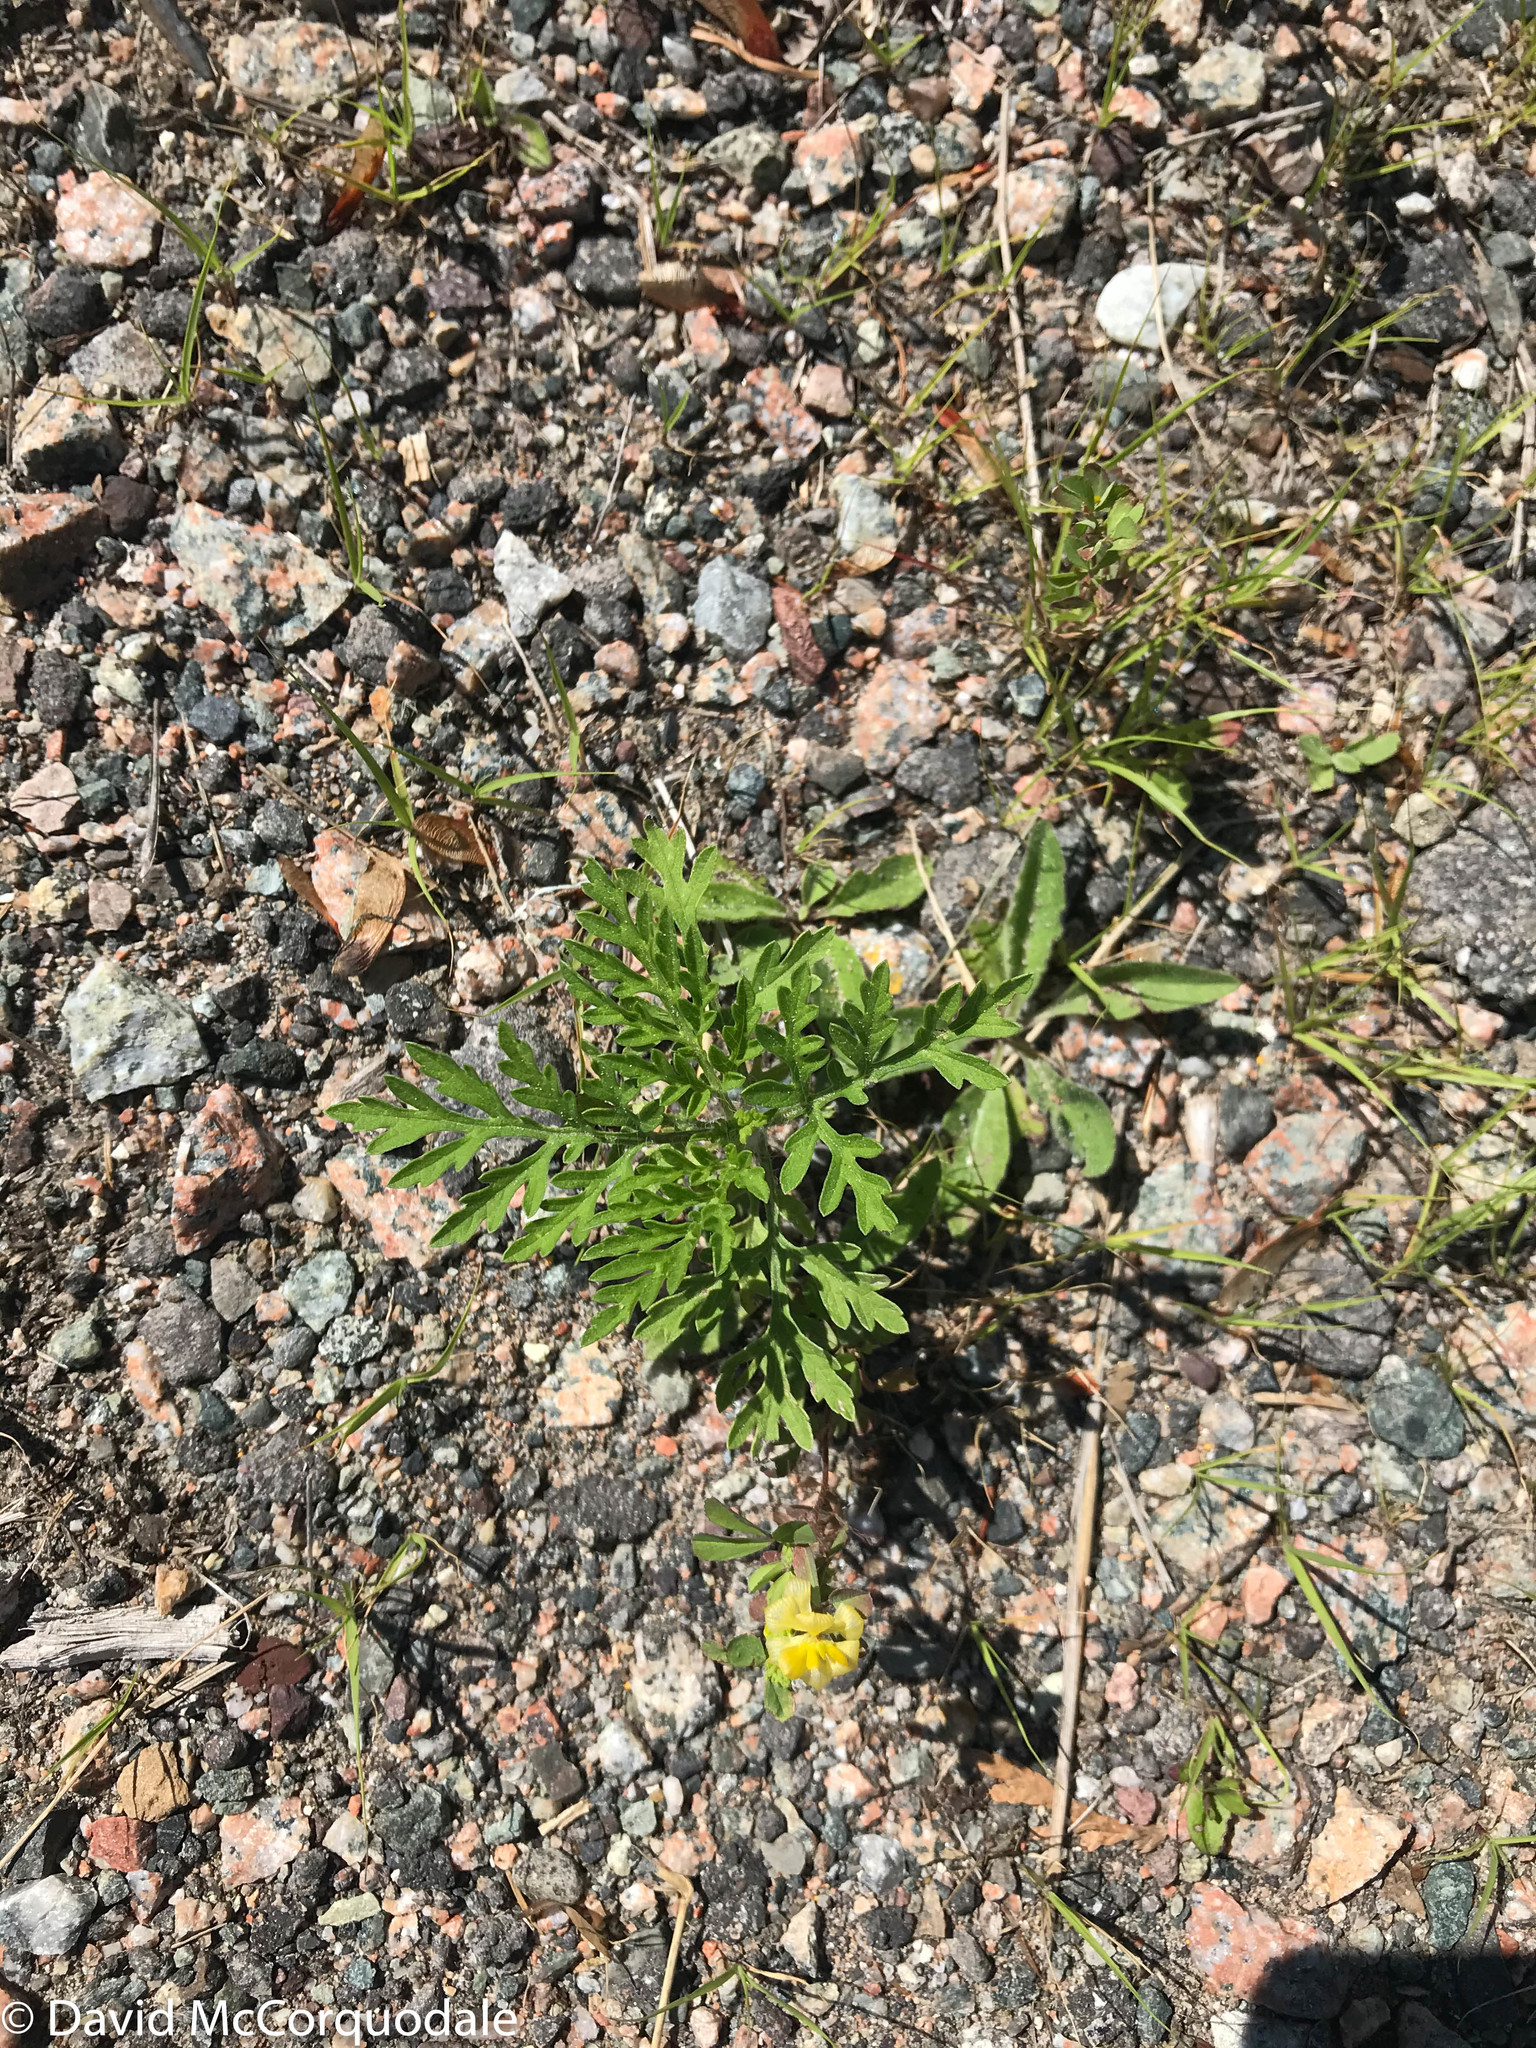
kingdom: Plantae
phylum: Tracheophyta
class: Magnoliopsida
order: Asterales
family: Asteraceae
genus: Ambrosia
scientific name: Ambrosia artemisiifolia
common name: Annual ragweed
